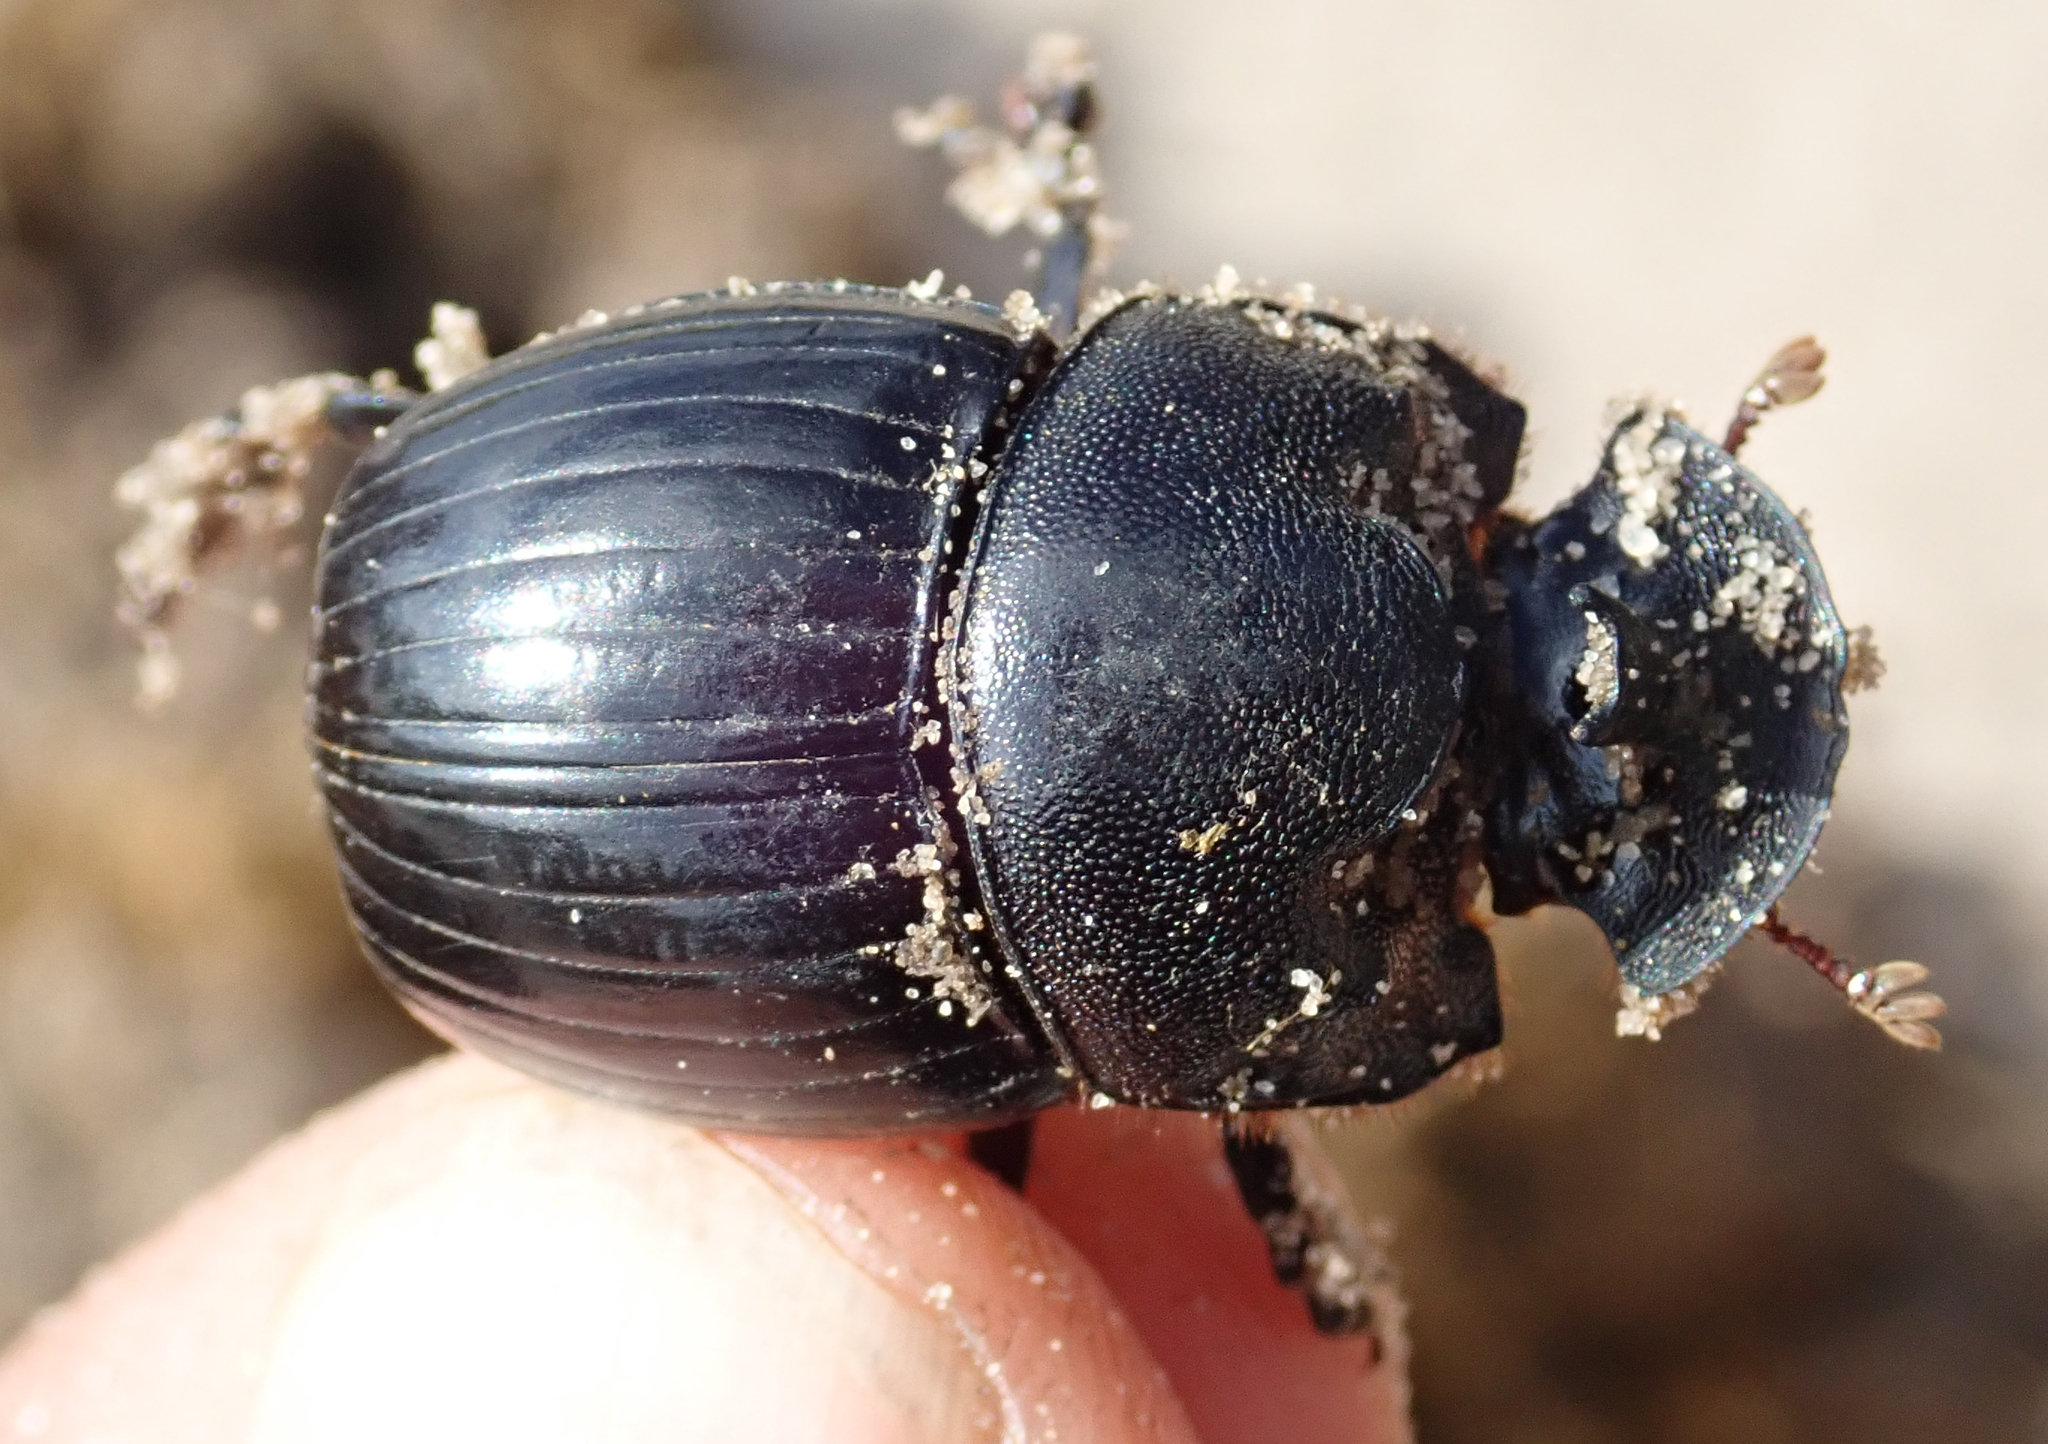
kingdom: Animalia
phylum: Arthropoda
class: Insecta
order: Coleoptera
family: Scarabaeidae
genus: Copris
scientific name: Copris elphenor
